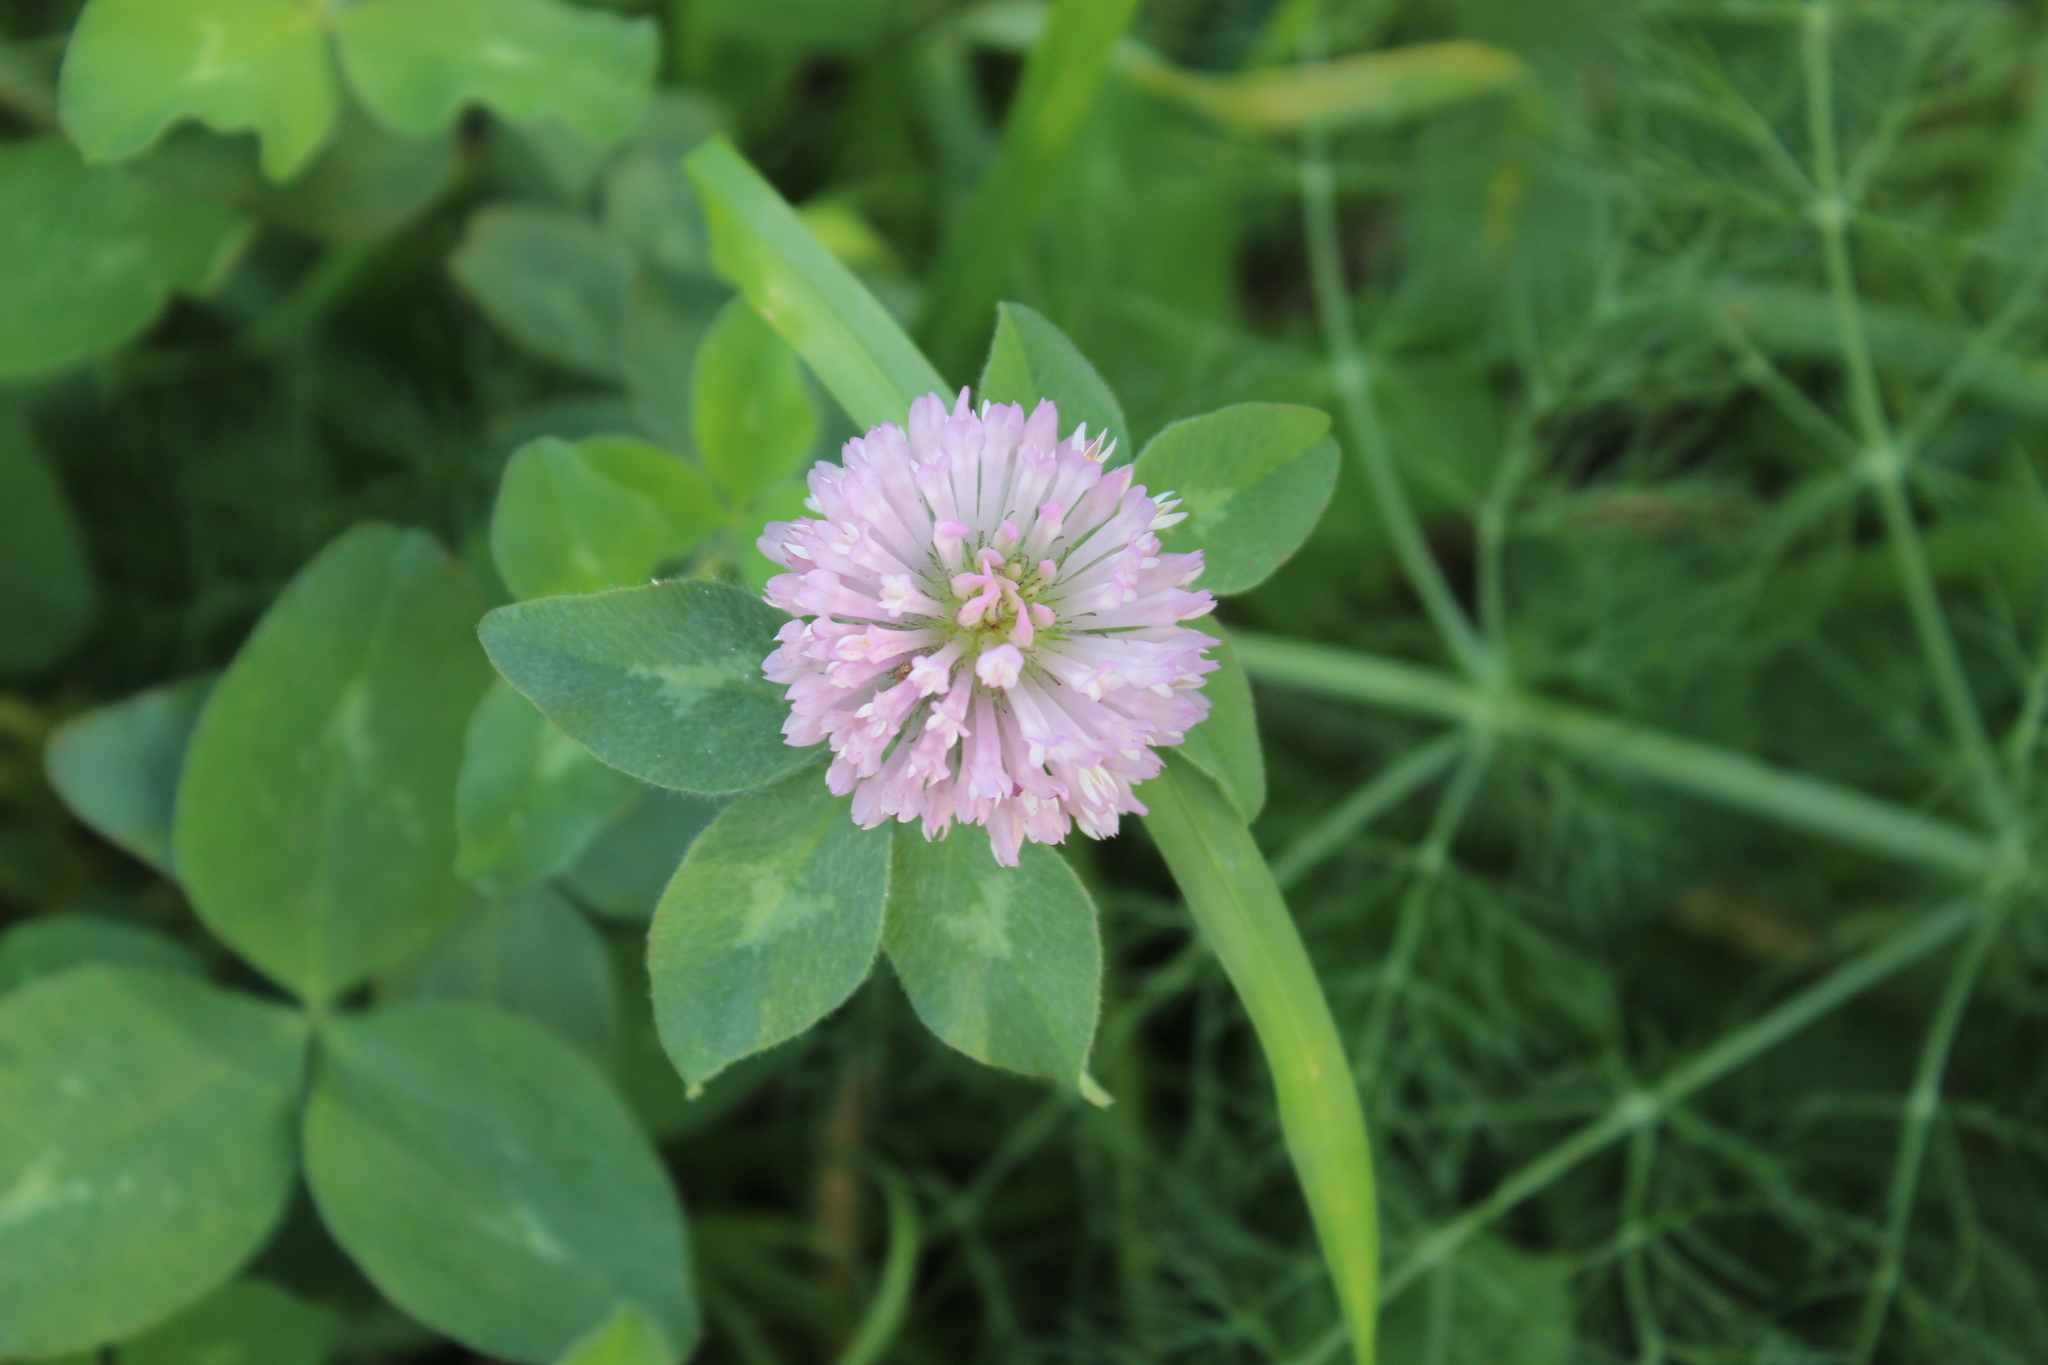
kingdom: Plantae
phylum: Tracheophyta
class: Magnoliopsida
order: Fabales
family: Fabaceae
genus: Trifolium
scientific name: Trifolium pratense
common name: Red clover
